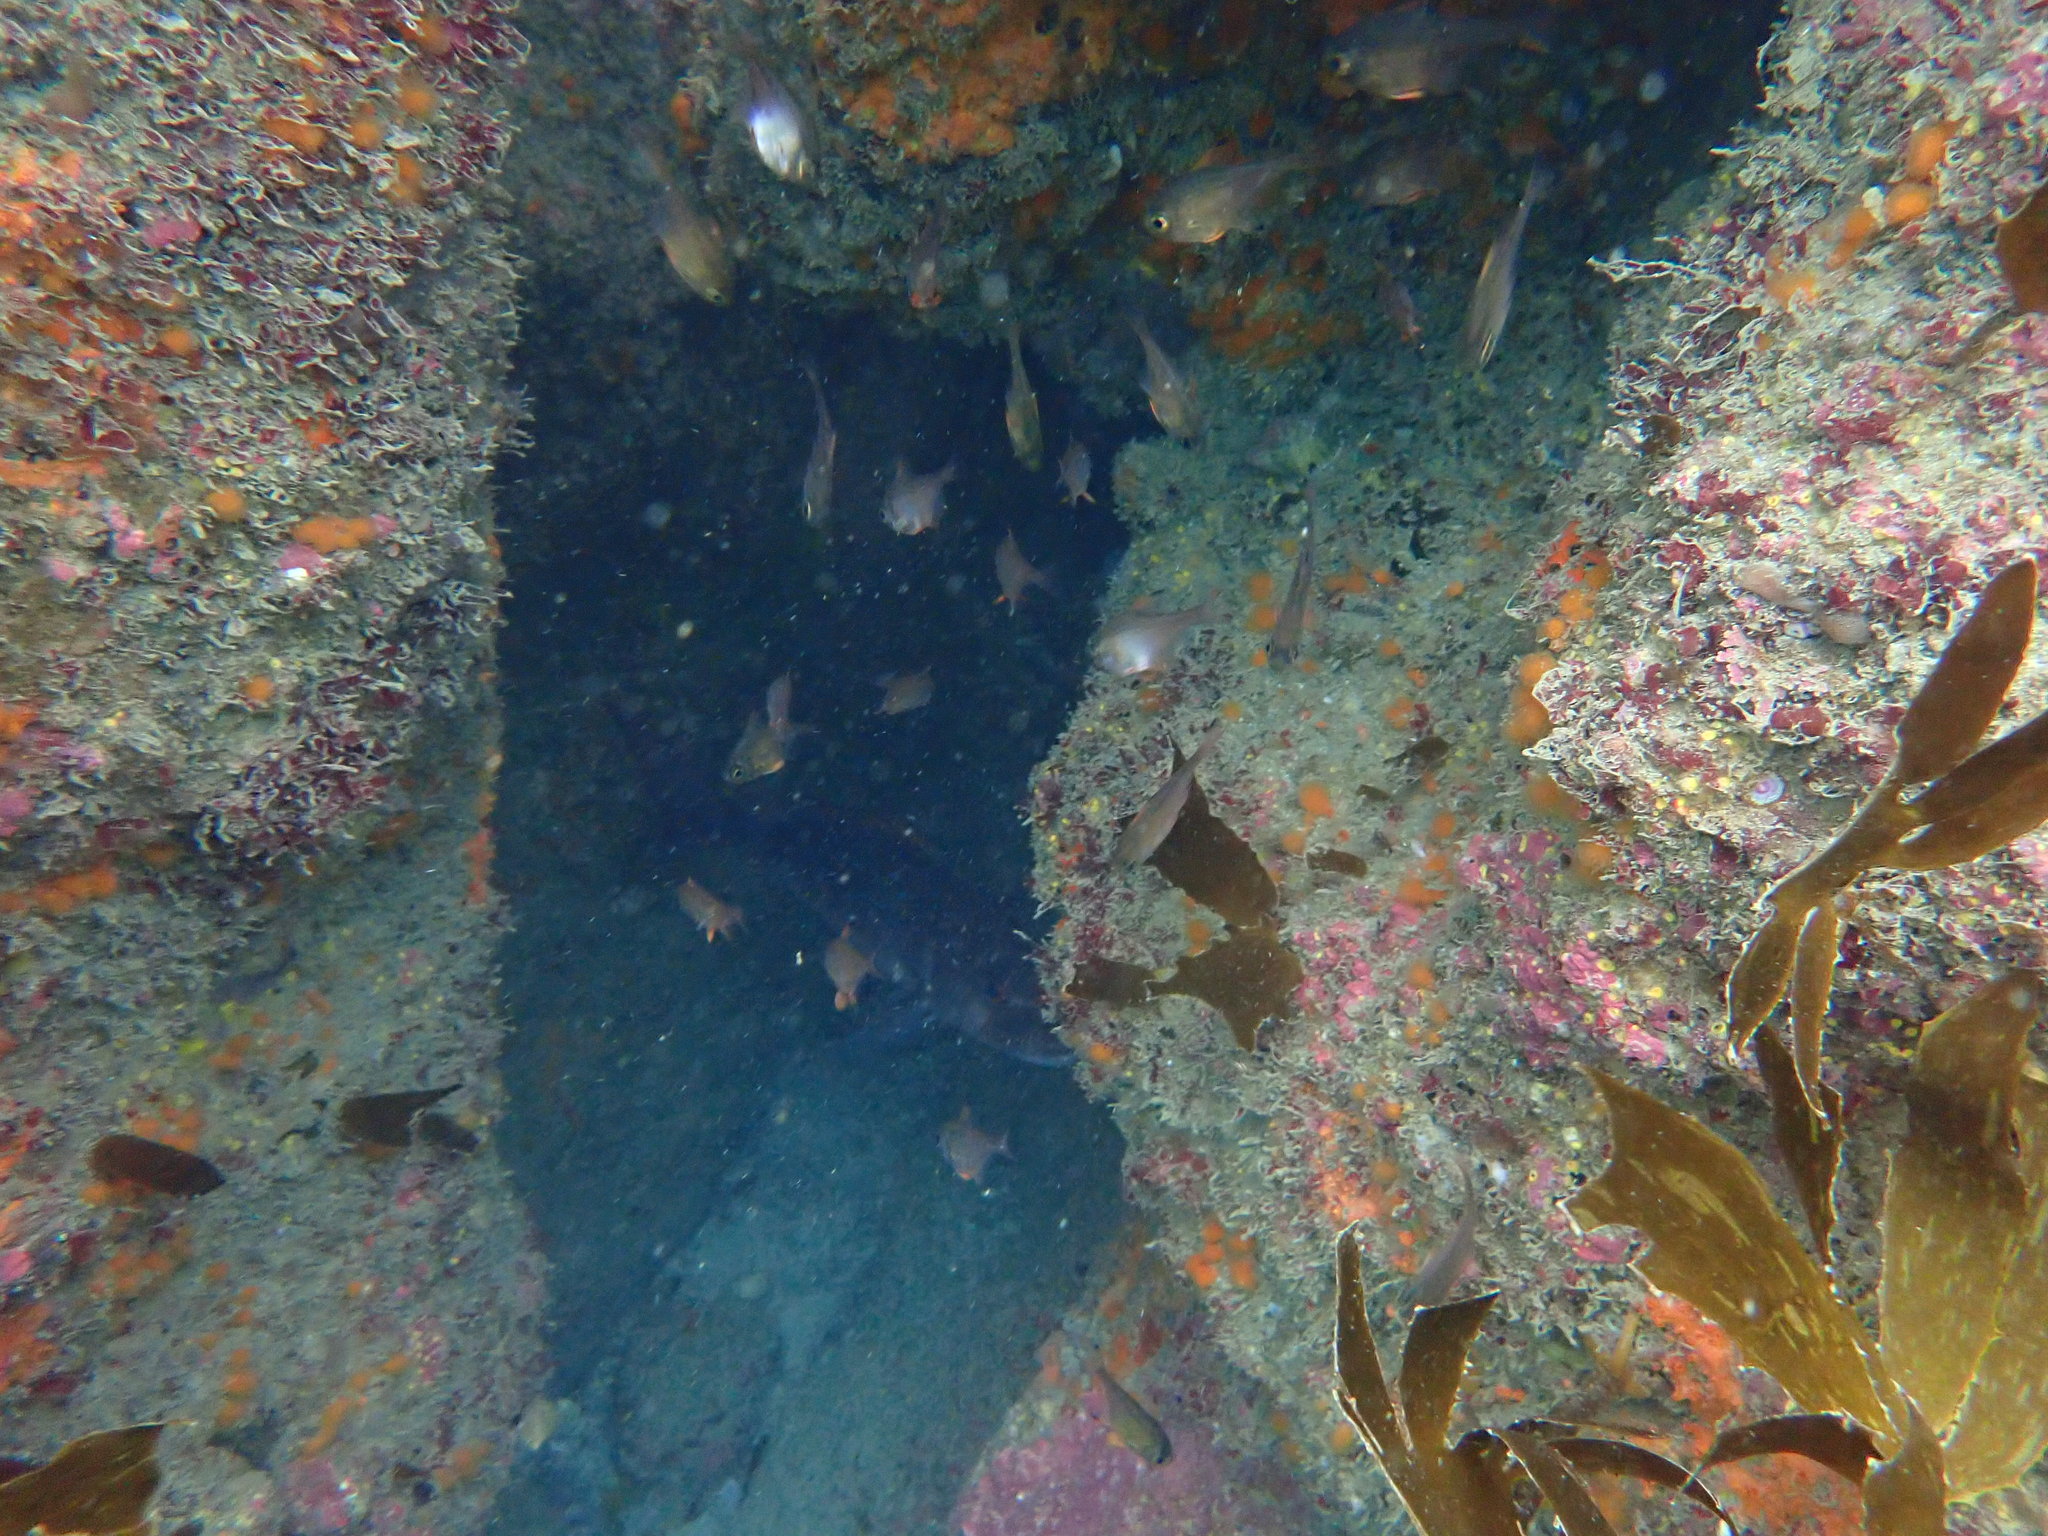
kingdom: Animalia
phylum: Chordata
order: Perciformes
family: Pempheridae
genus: Pempheris
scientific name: Pempheris adspersa
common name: Bigeye
